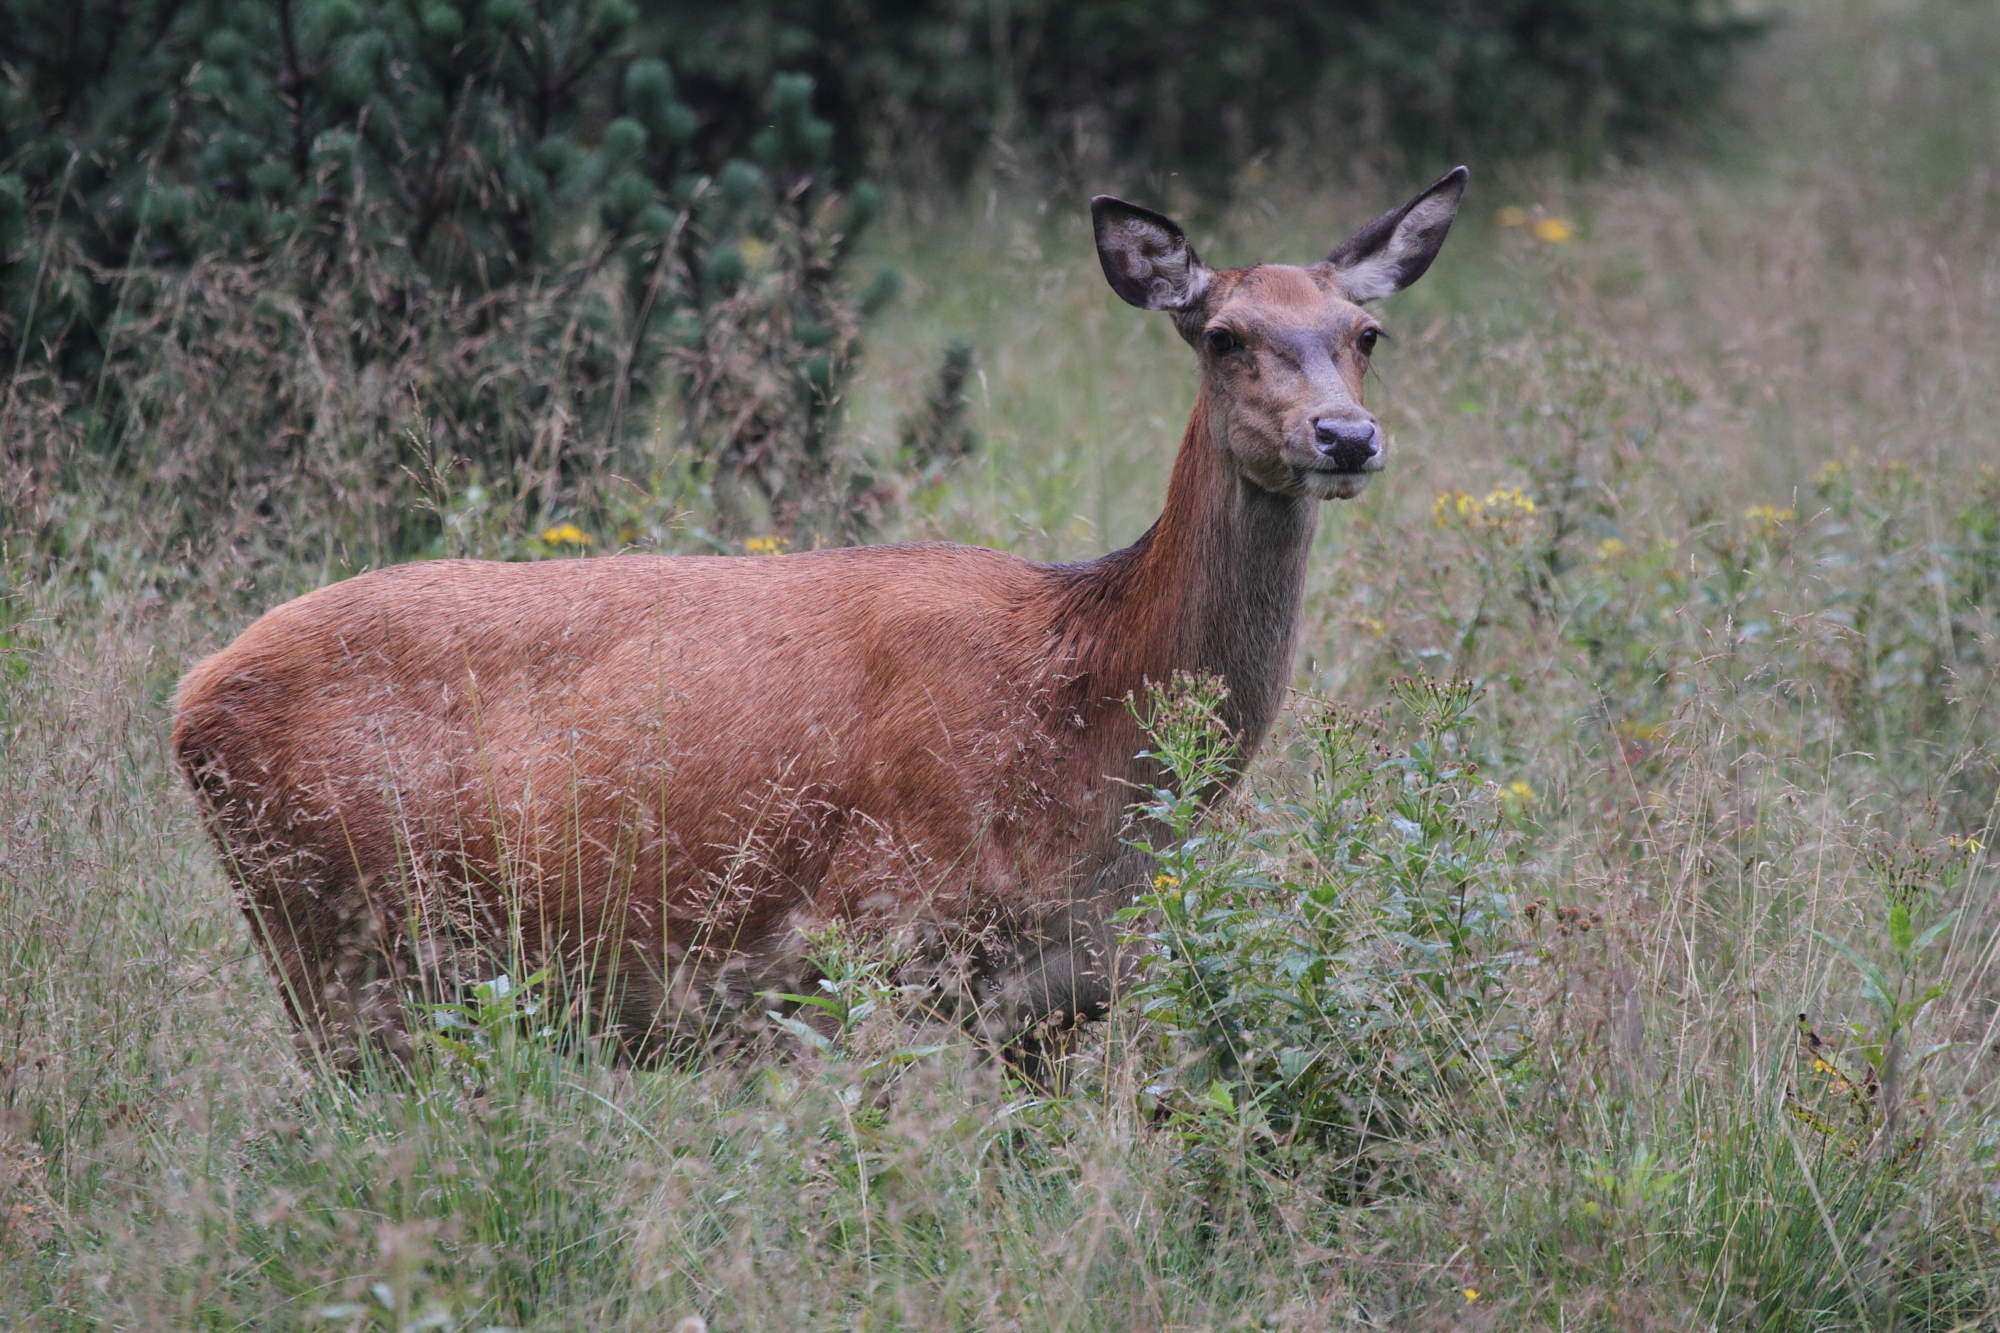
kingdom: Animalia
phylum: Chordata
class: Mammalia
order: Artiodactyla
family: Cervidae
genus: Cervus
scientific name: Cervus elaphus
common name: Red deer
